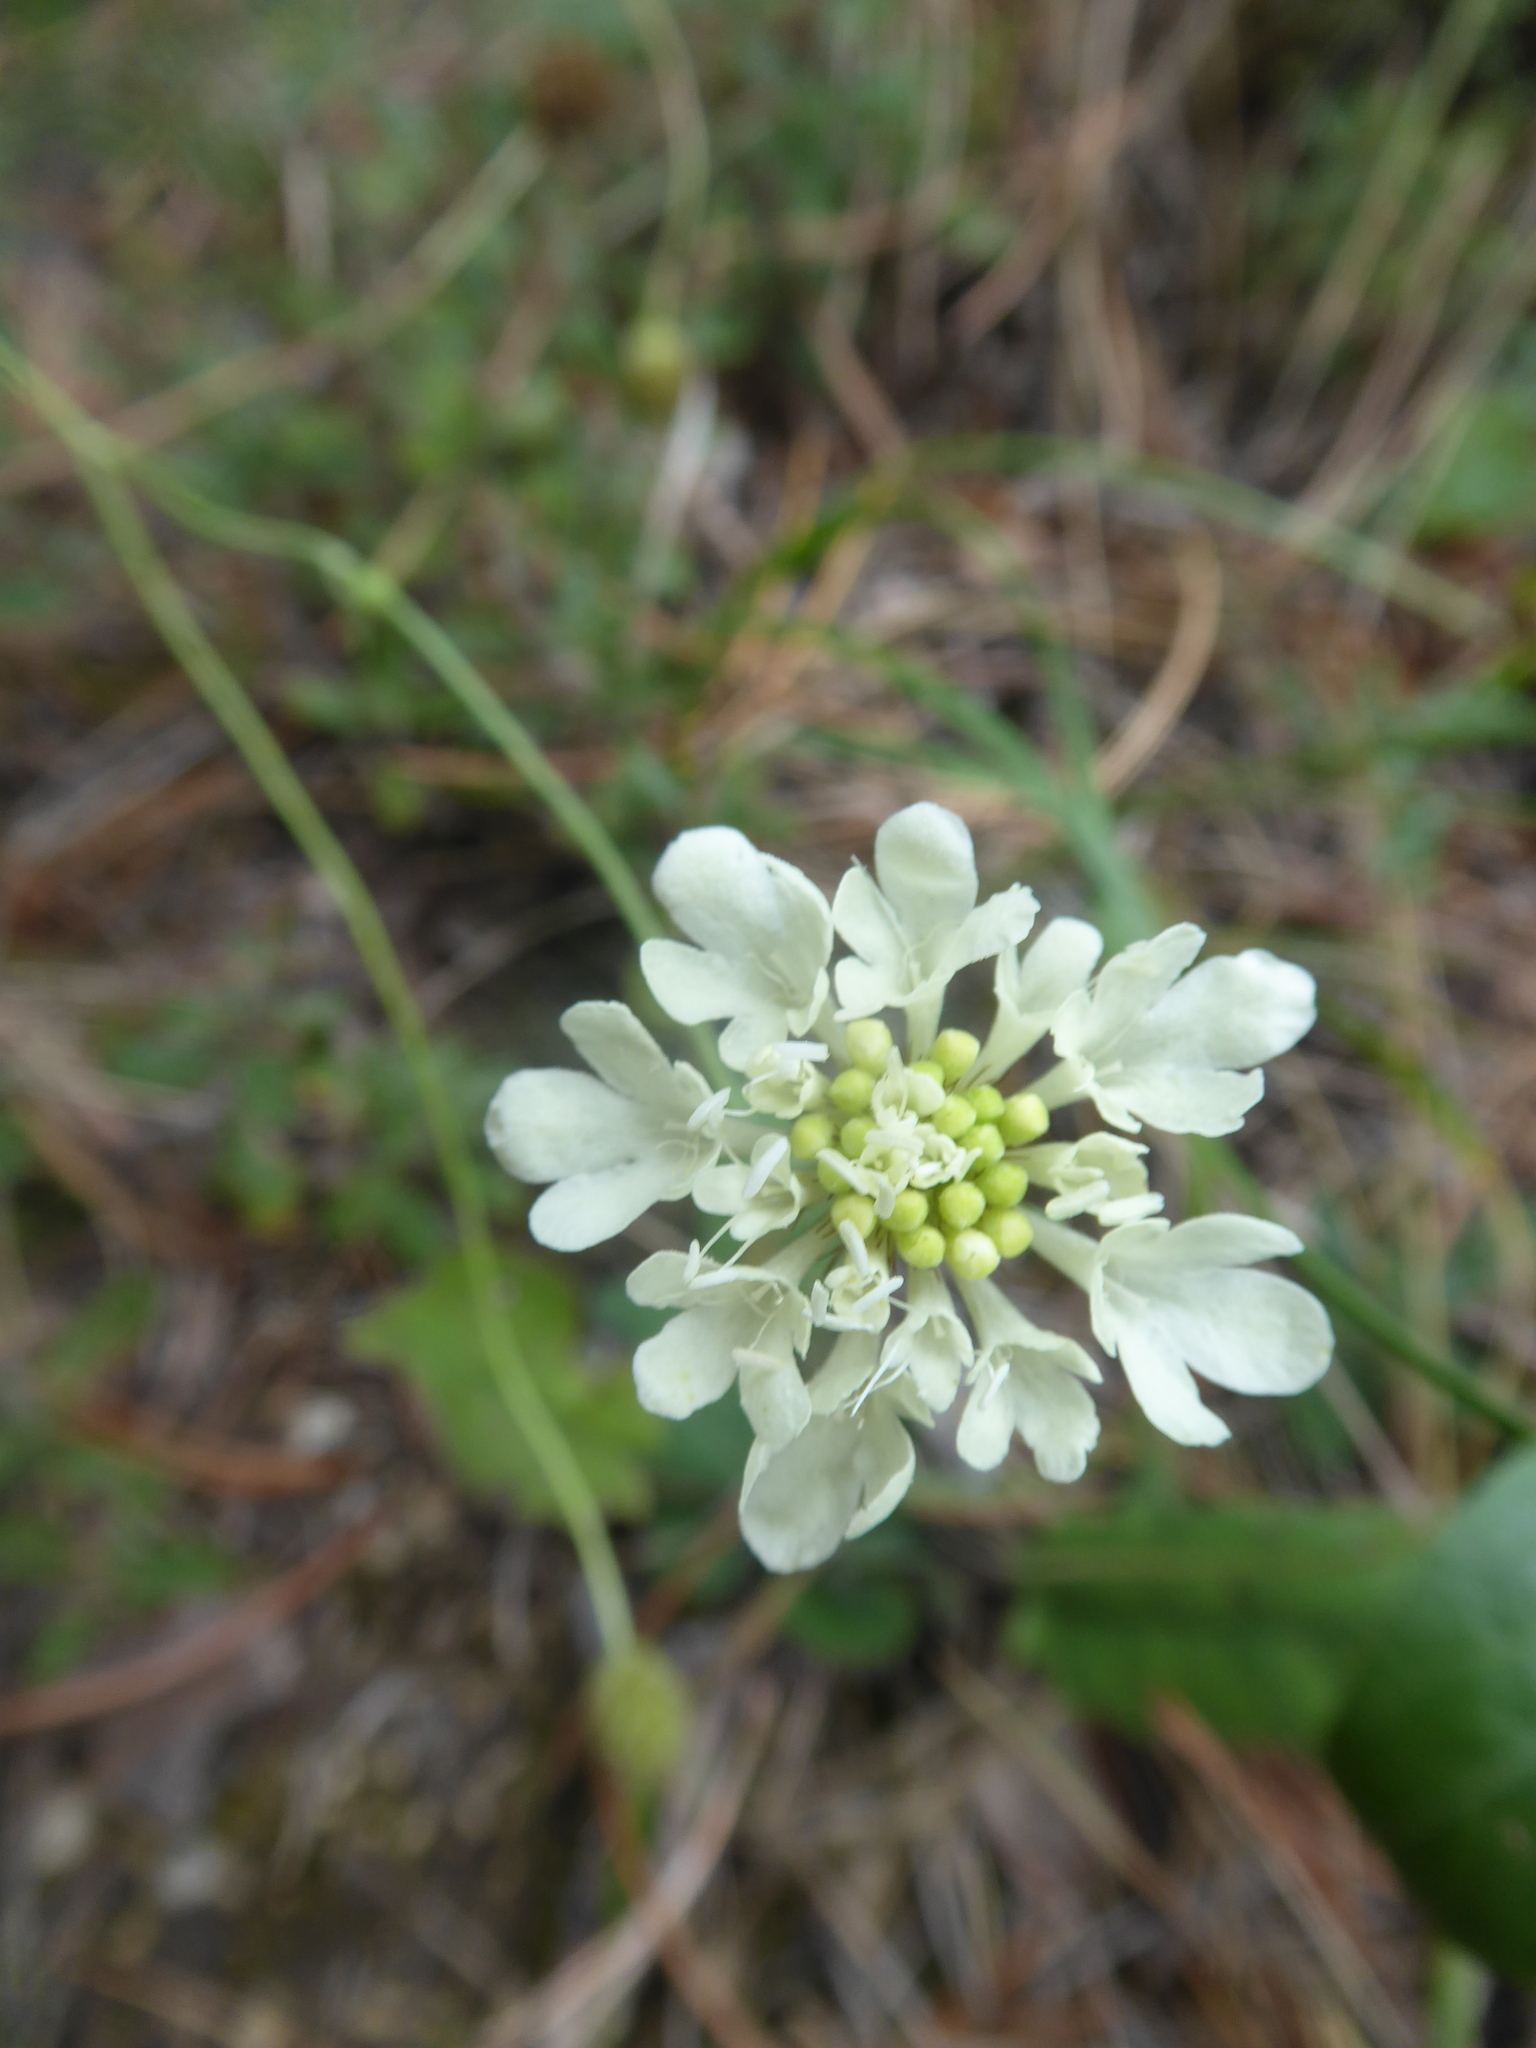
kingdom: Plantae
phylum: Tracheophyta
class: Magnoliopsida
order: Dipsacales
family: Caprifoliaceae
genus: Scabiosa
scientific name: Scabiosa ochroleuca
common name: Cream pincushions
